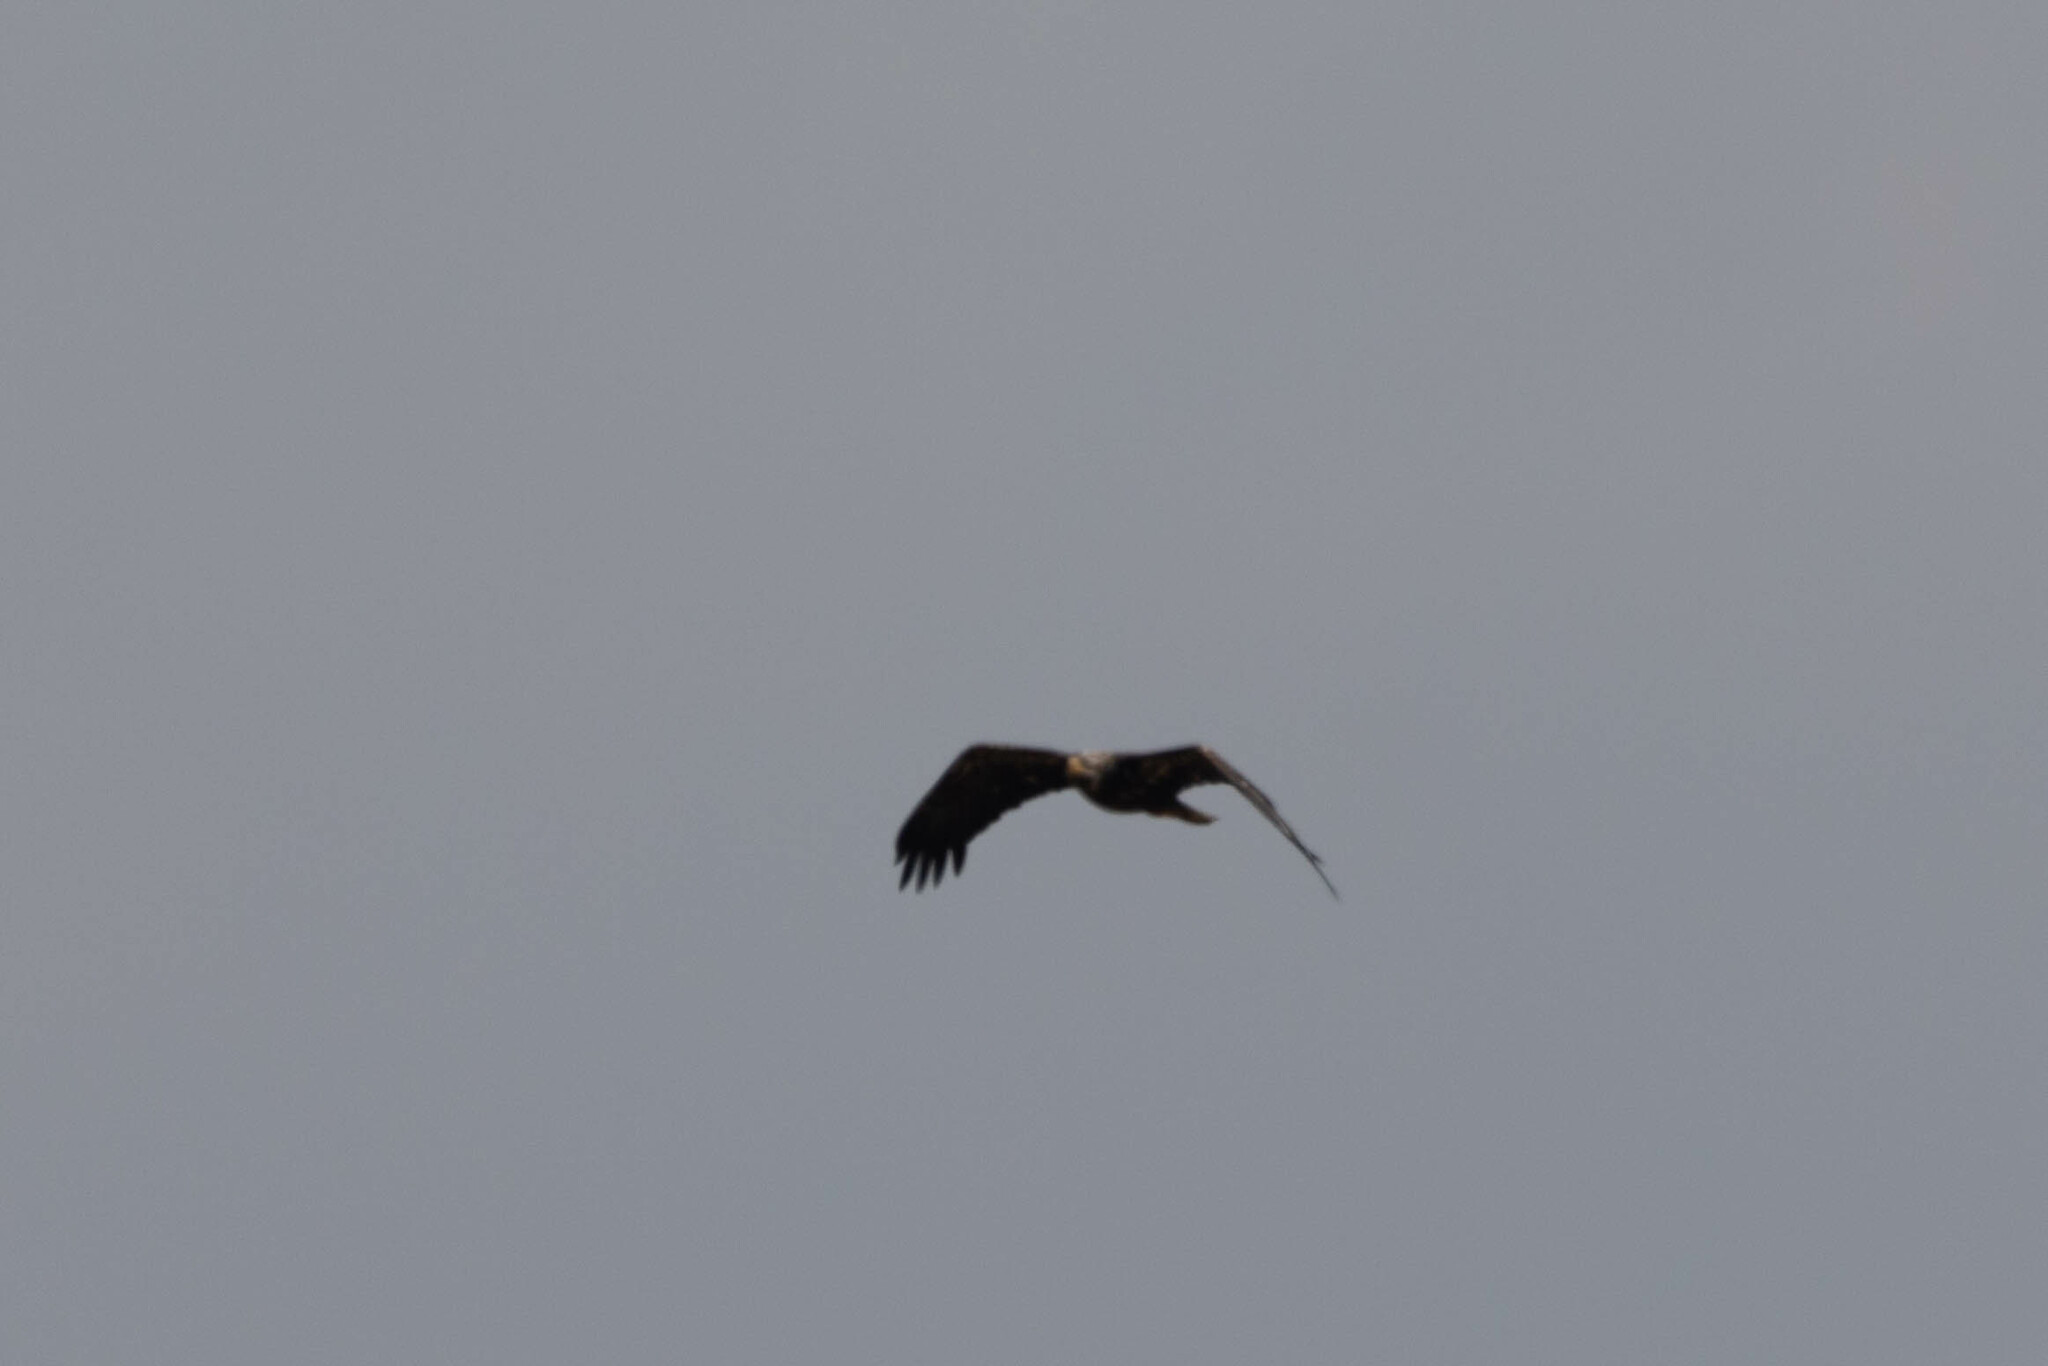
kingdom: Animalia
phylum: Chordata
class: Aves
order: Accipitriformes
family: Accipitridae
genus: Haliaeetus
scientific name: Haliaeetus leucocephalus
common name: Bald eagle
